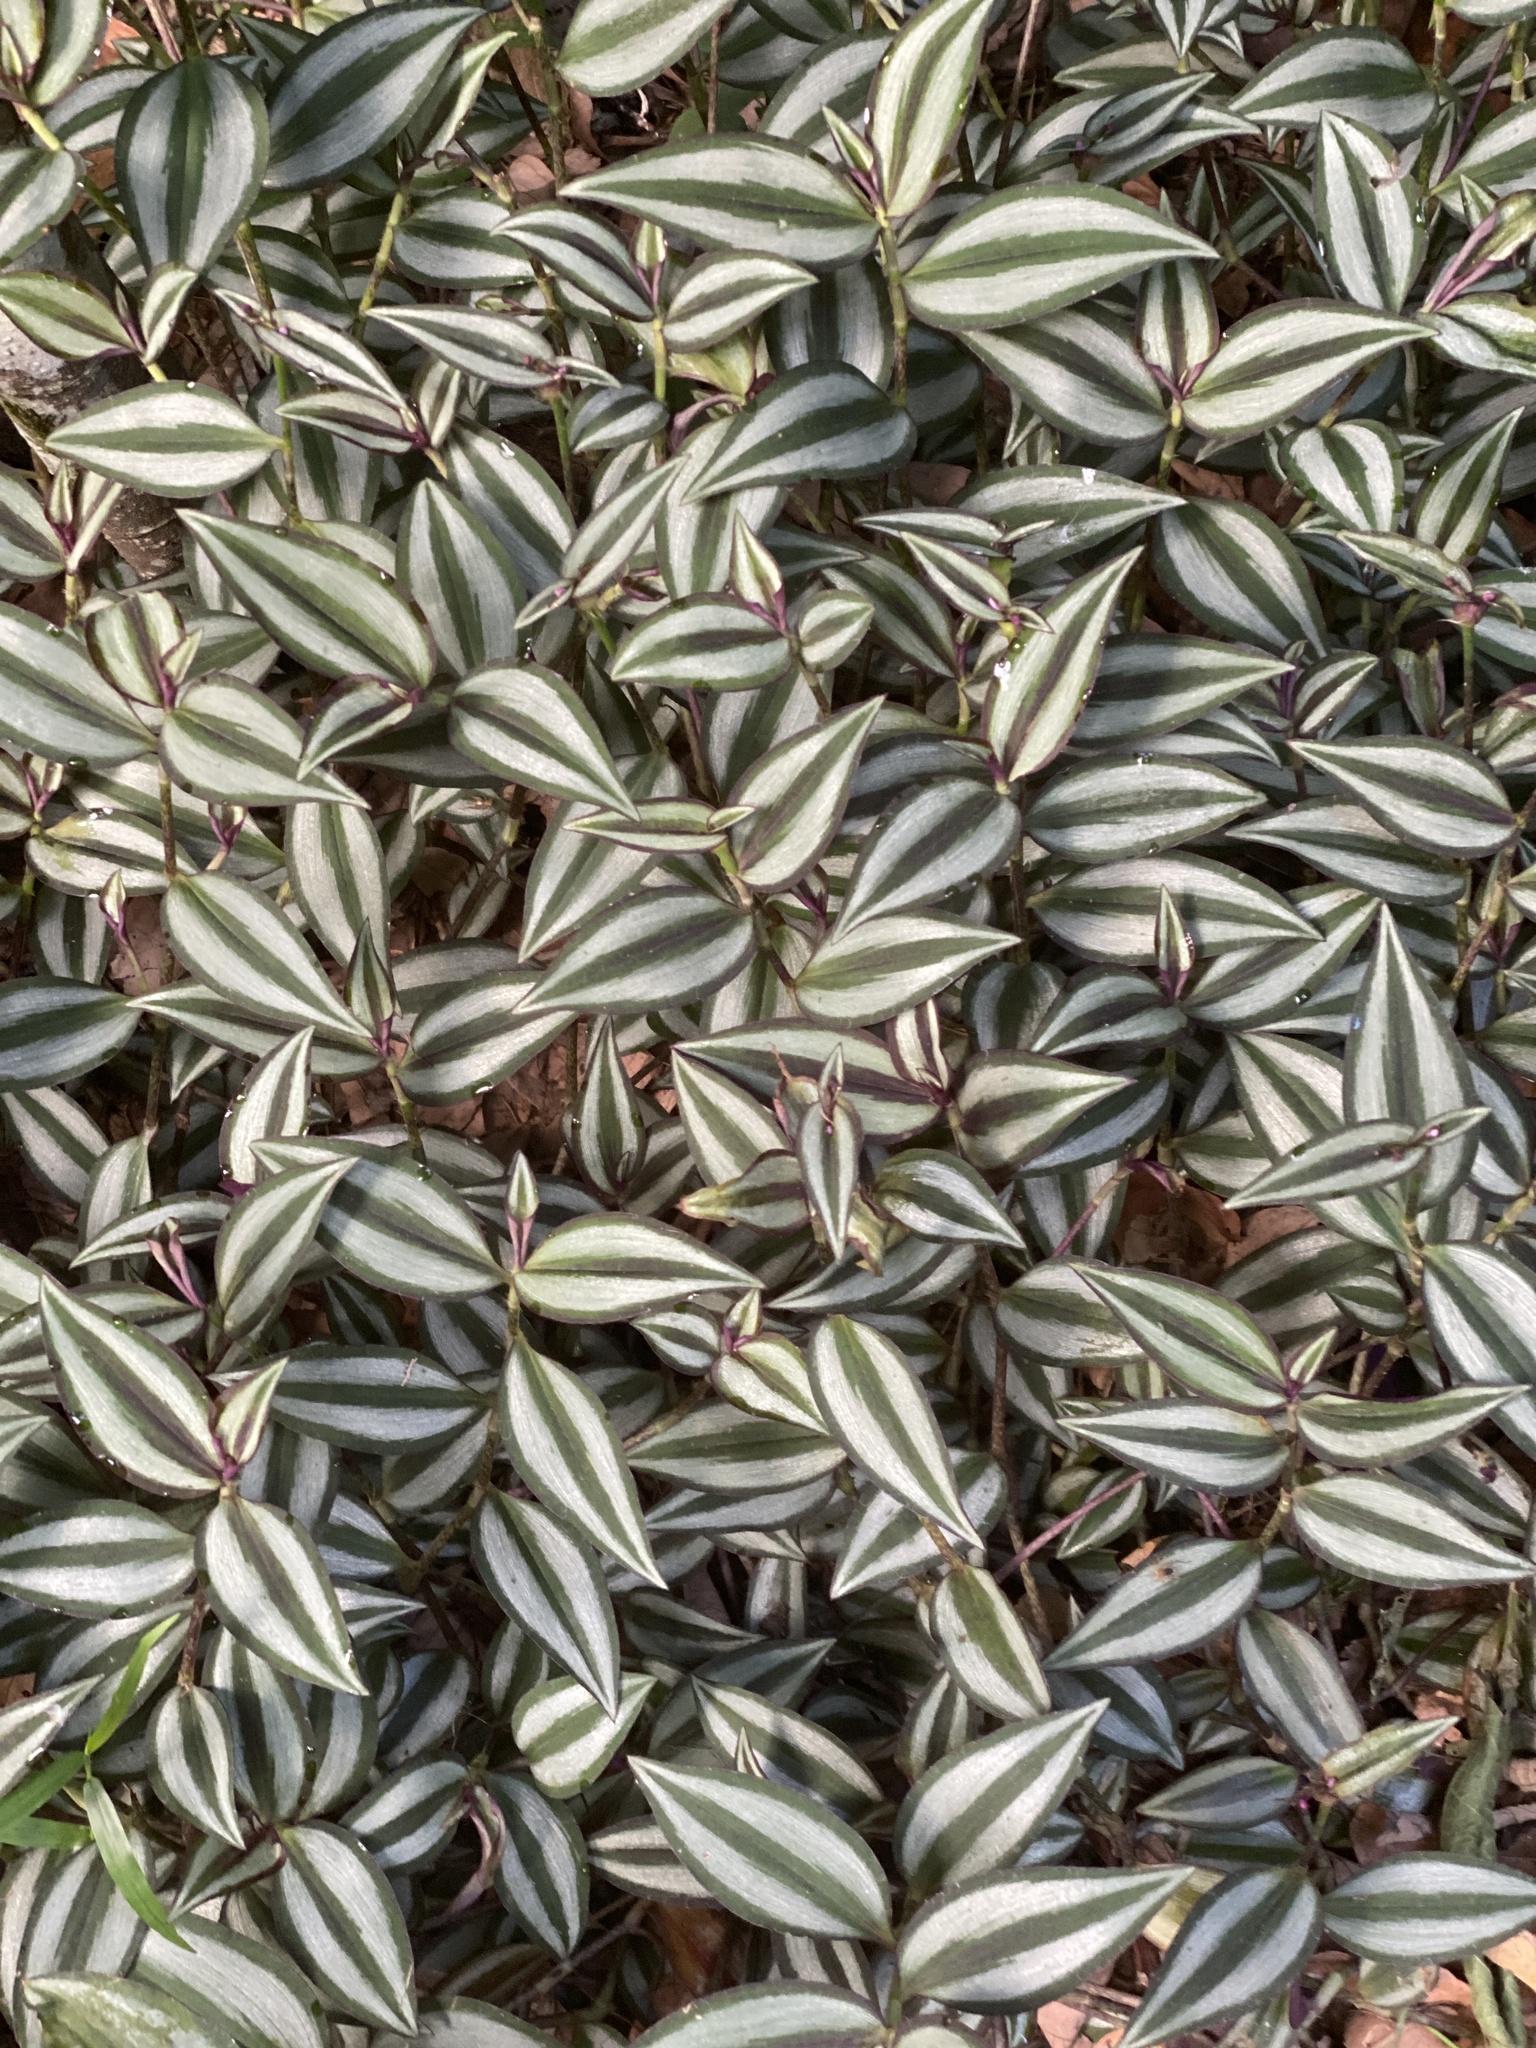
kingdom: Plantae
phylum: Tracheophyta
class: Liliopsida
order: Commelinales
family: Commelinaceae
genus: Tradescantia
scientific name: Tradescantia zebrina
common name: Inchplant
